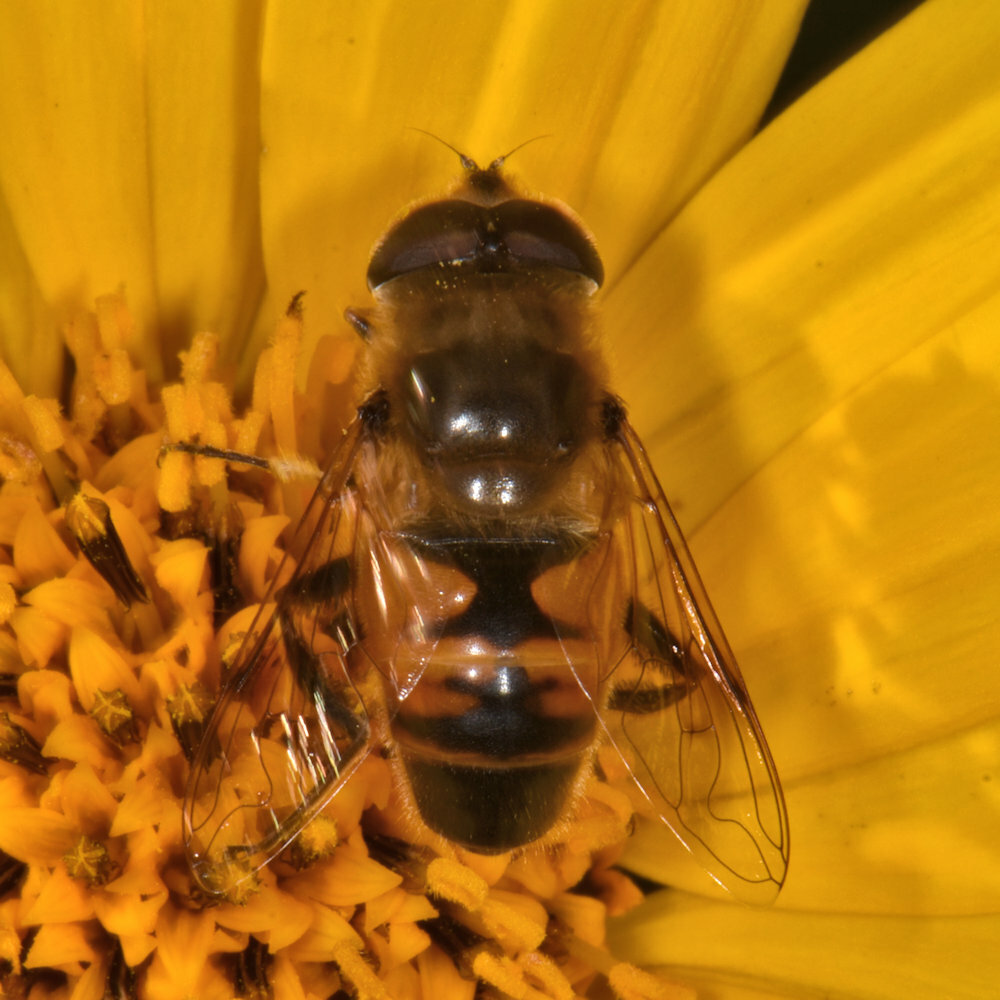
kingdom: Animalia
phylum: Arthropoda
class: Insecta
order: Diptera
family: Syrphidae
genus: Eristalis
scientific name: Eristalis tenax
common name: Drone fly
